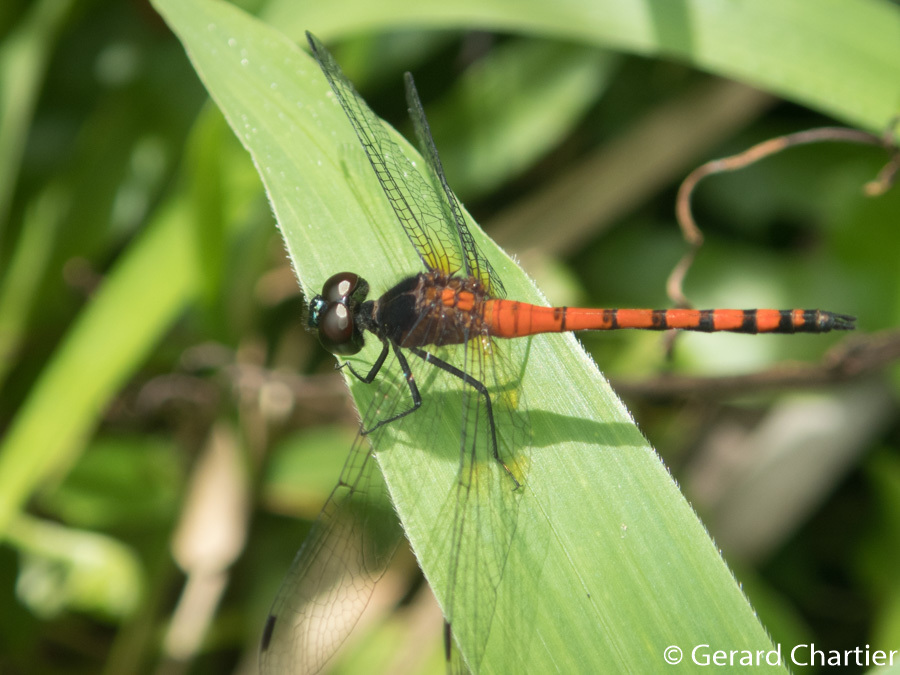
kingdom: Animalia
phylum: Arthropoda
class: Insecta
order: Odonata
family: Libellulidae
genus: Amphithemis
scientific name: Amphithemis curvistyla
